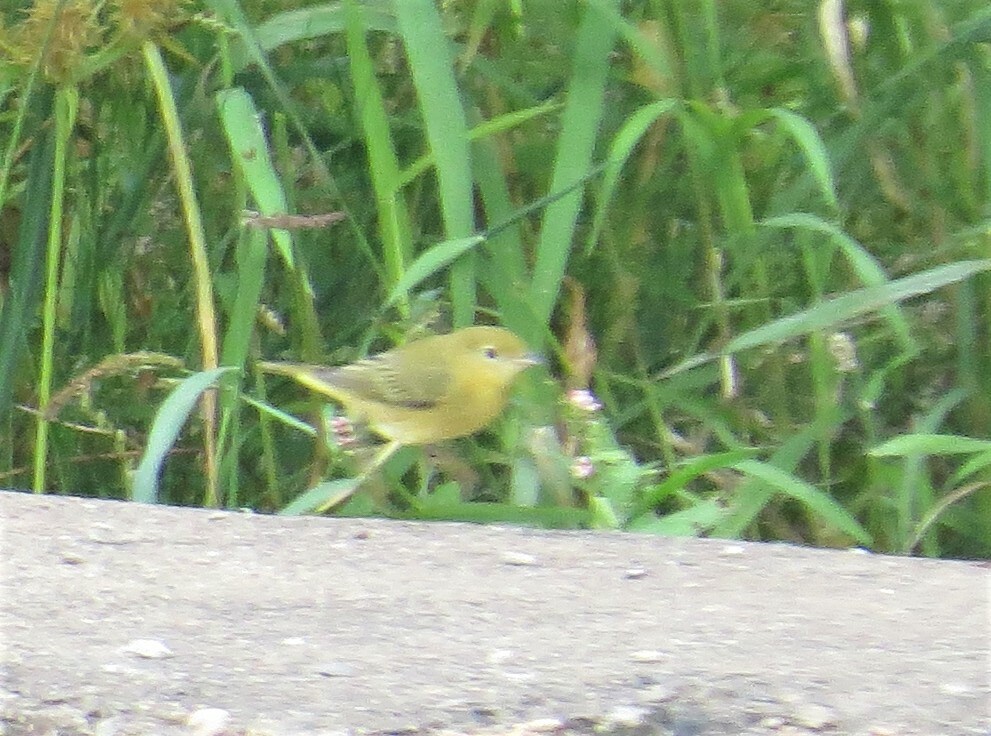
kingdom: Animalia
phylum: Chordata
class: Aves
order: Passeriformes
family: Parulidae
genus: Setophaga
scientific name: Setophaga petechia
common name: Yellow warbler
